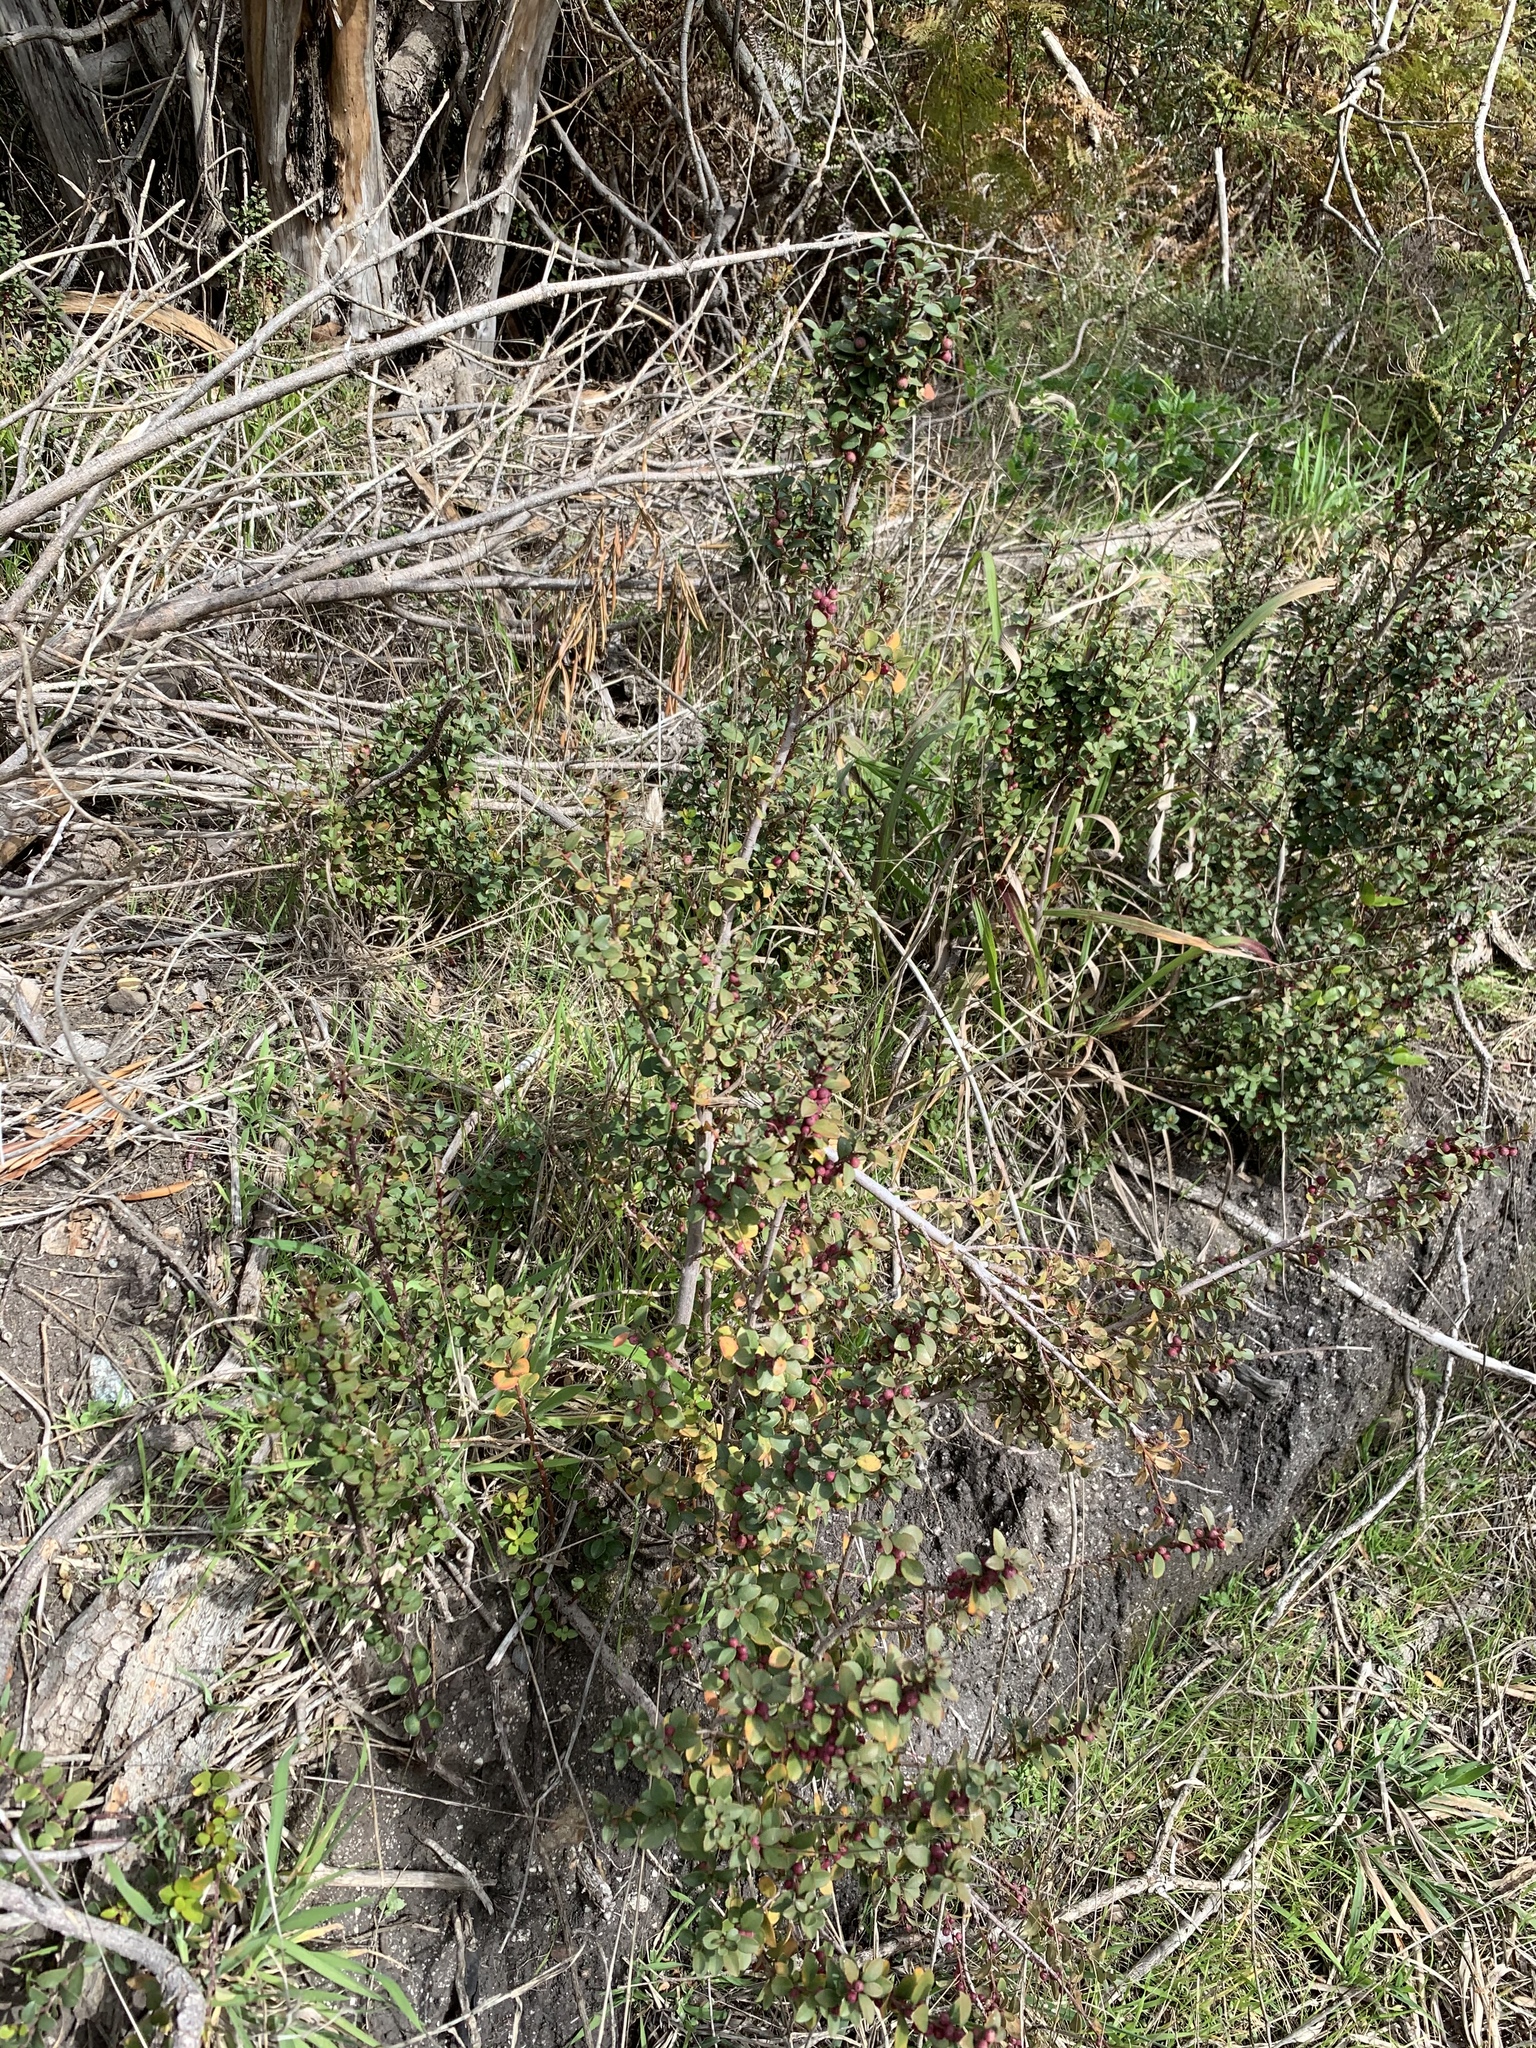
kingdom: Plantae
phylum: Tracheophyta
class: Magnoliopsida
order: Ericales
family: Primulaceae
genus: Myrsine
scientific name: Myrsine africana
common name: African-boxwood
